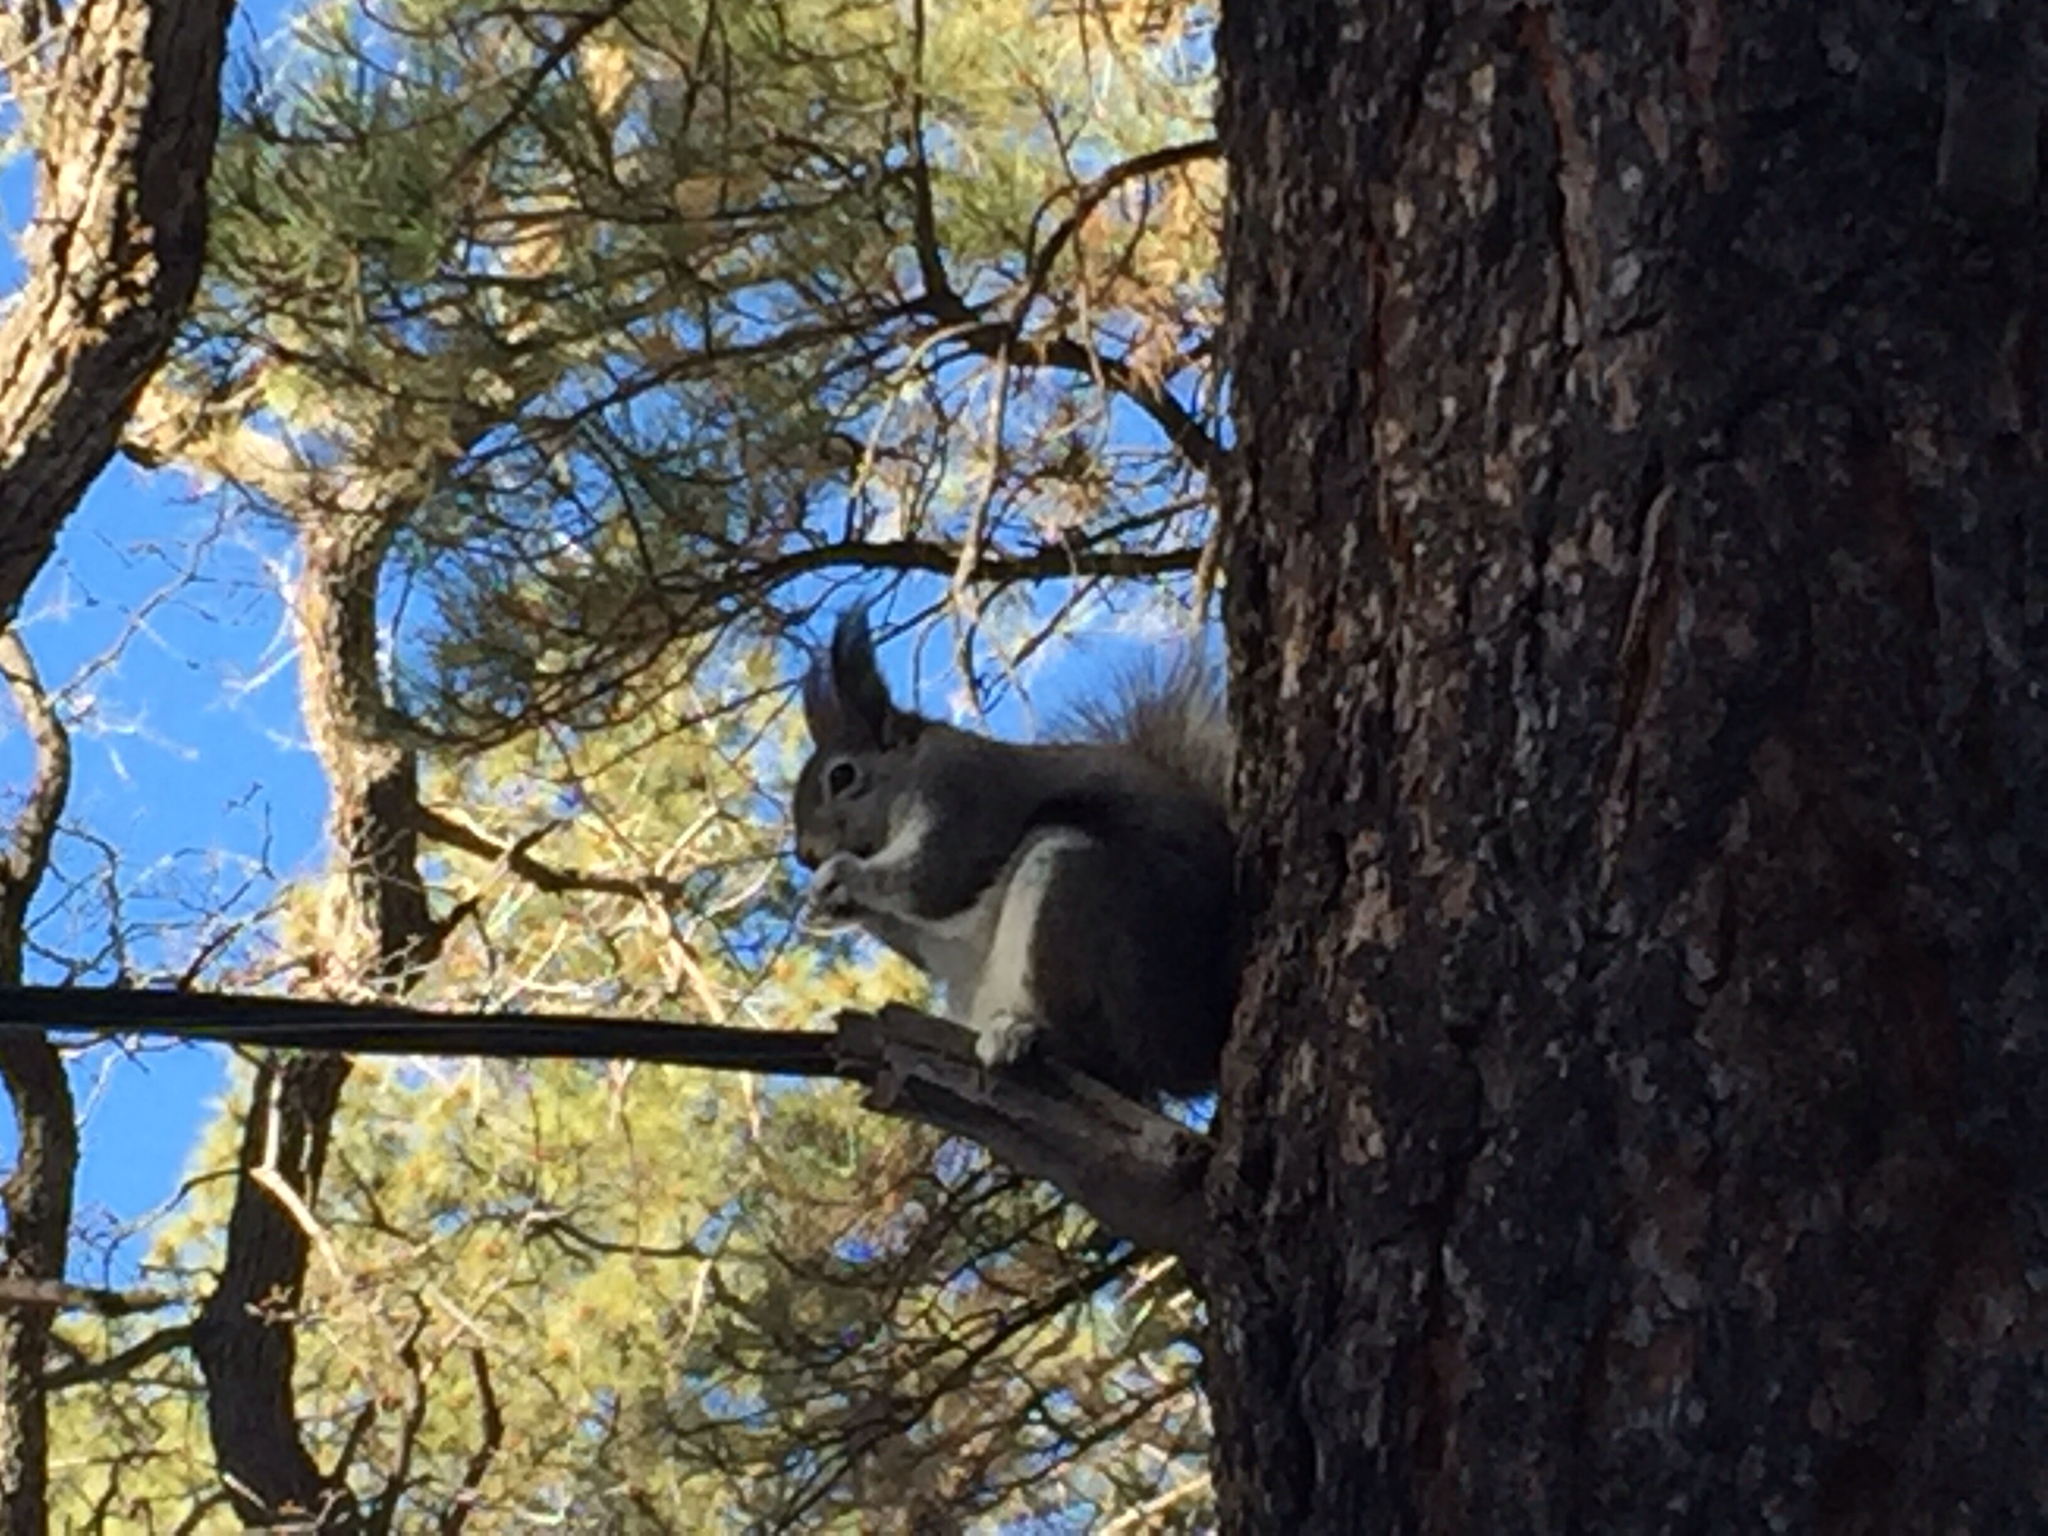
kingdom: Animalia
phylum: Chordata
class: Mammalia
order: Rodentia
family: Sciuridae
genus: Sciurus
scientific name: Sciurus aberti
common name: Abert's squirrel
